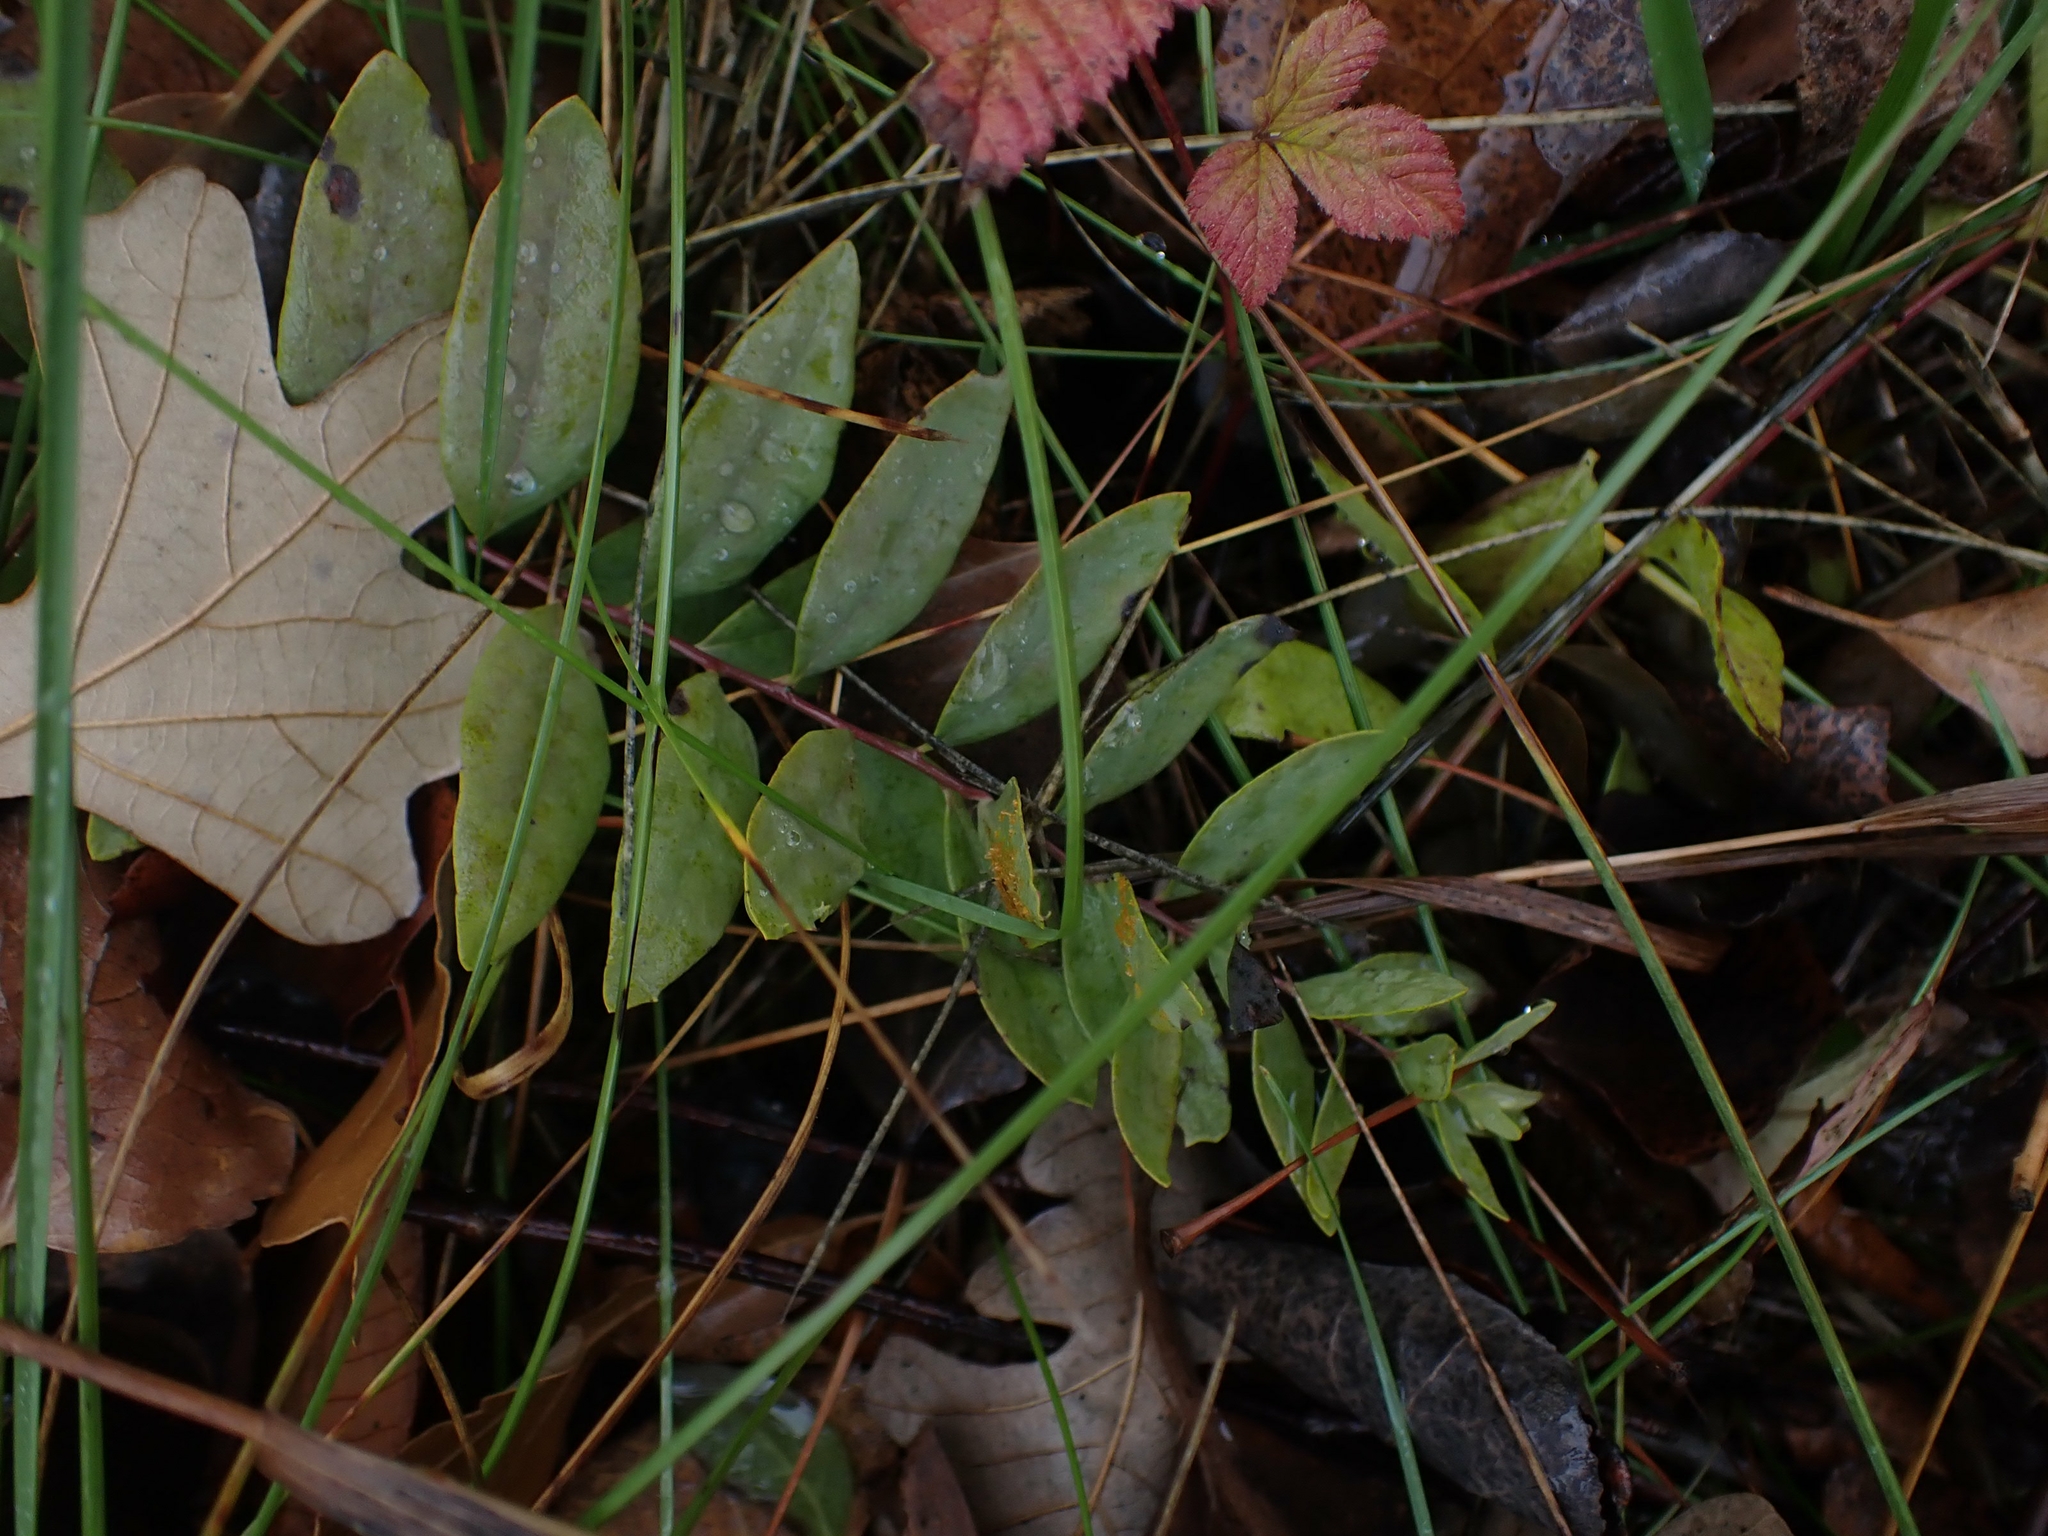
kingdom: Plantae
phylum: Tracheophyta
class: Magnoliopsida
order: Santalales
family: Comandraceae
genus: Comandra
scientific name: Comandra umbellata
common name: Bastard toadflax
